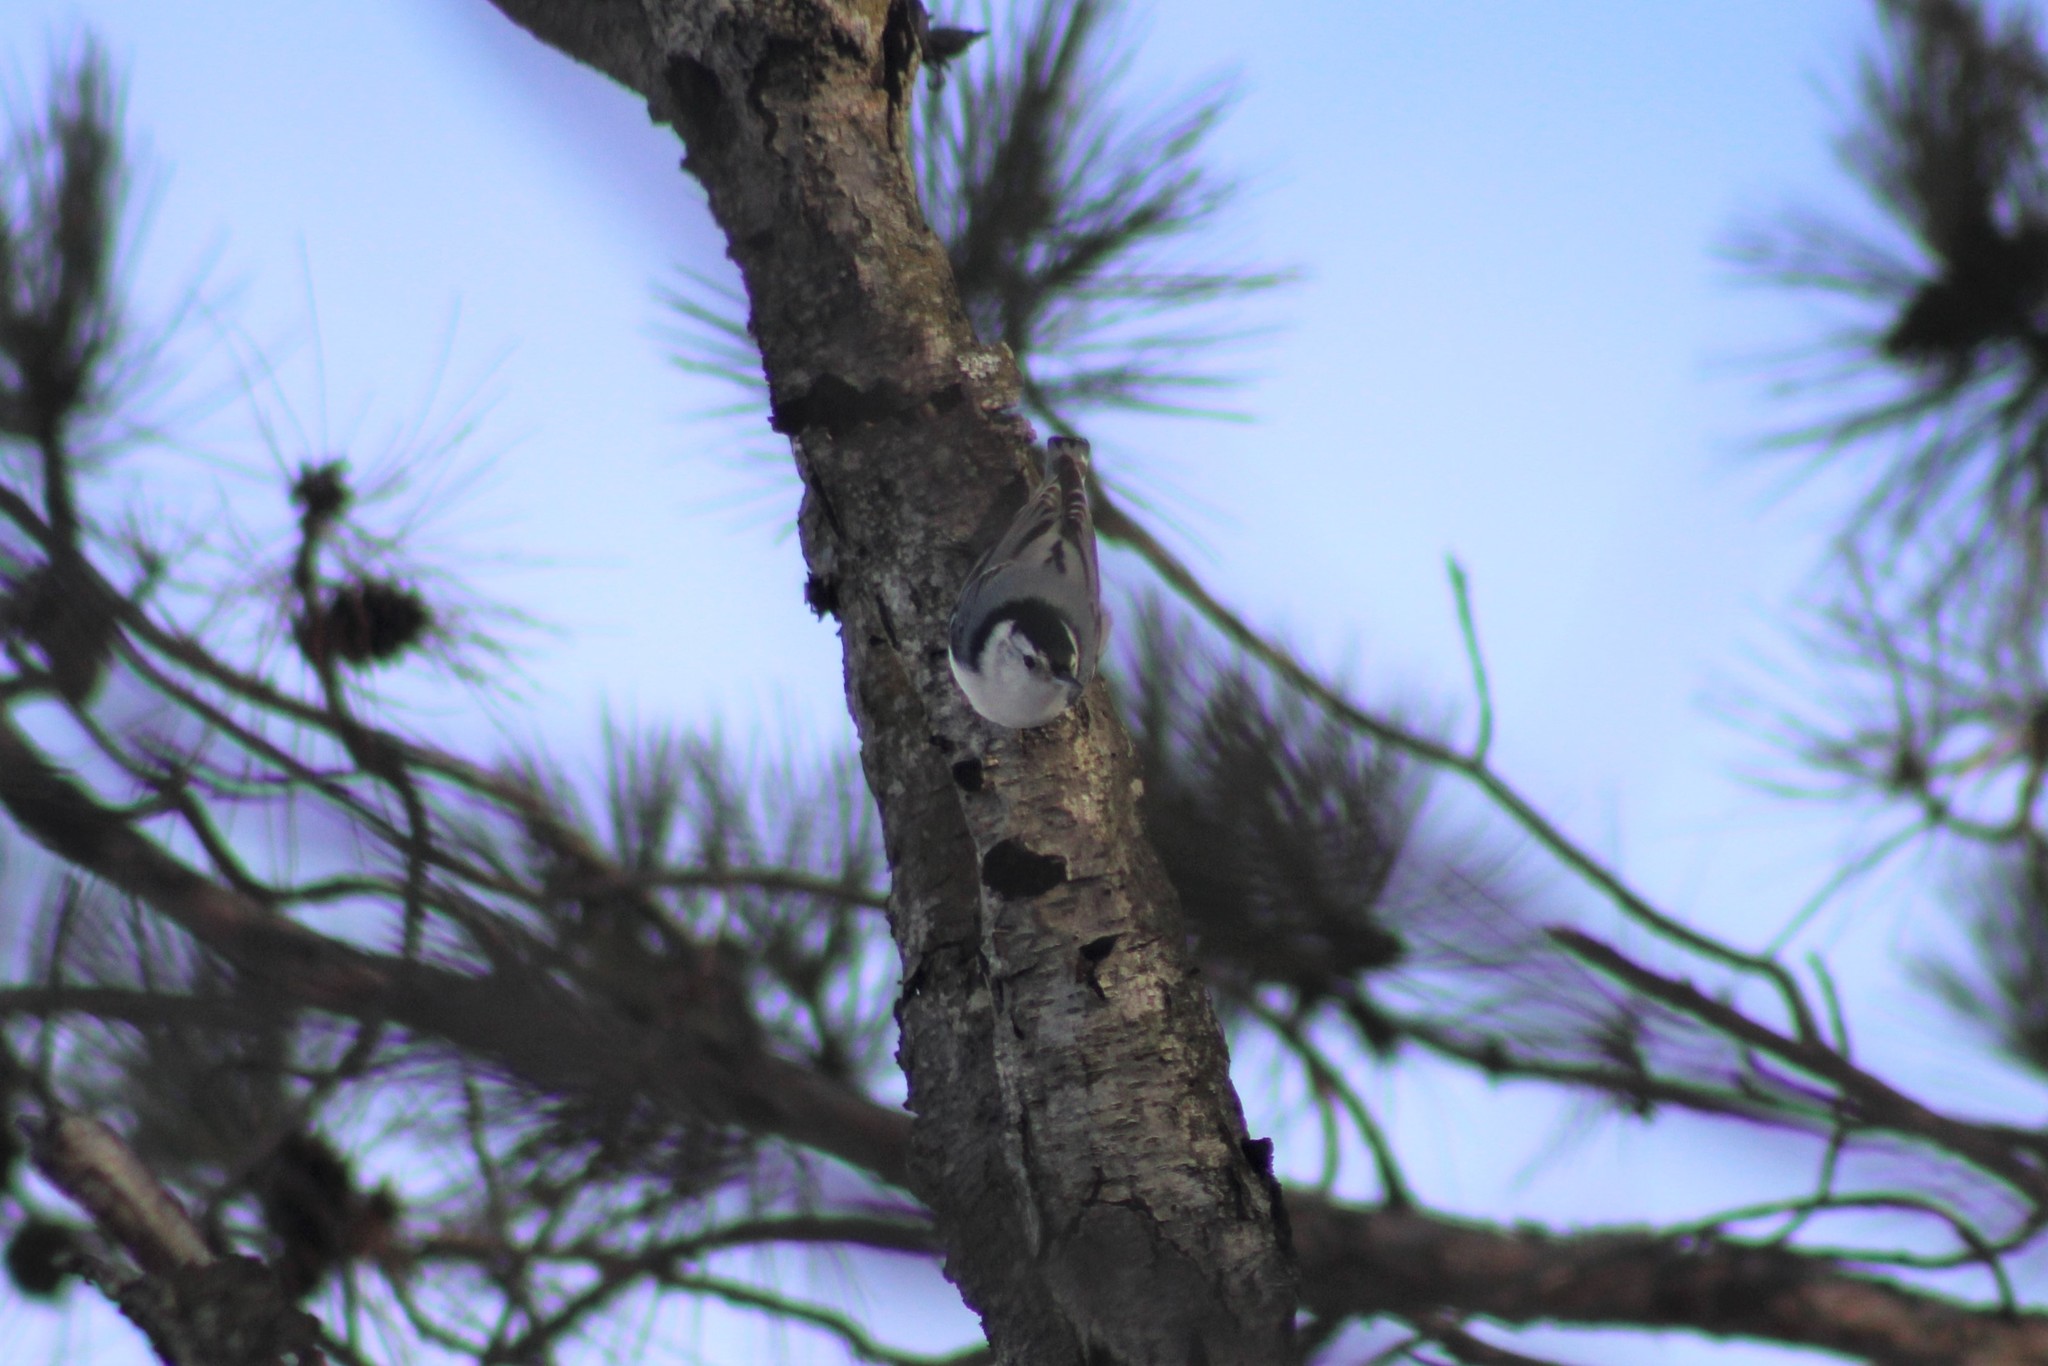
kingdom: Animalia
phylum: Chordata
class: Aves
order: Passeriformes
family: Sittidae
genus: Sitta
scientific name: Sitta carolinensis
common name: White-breasted nuthatch
